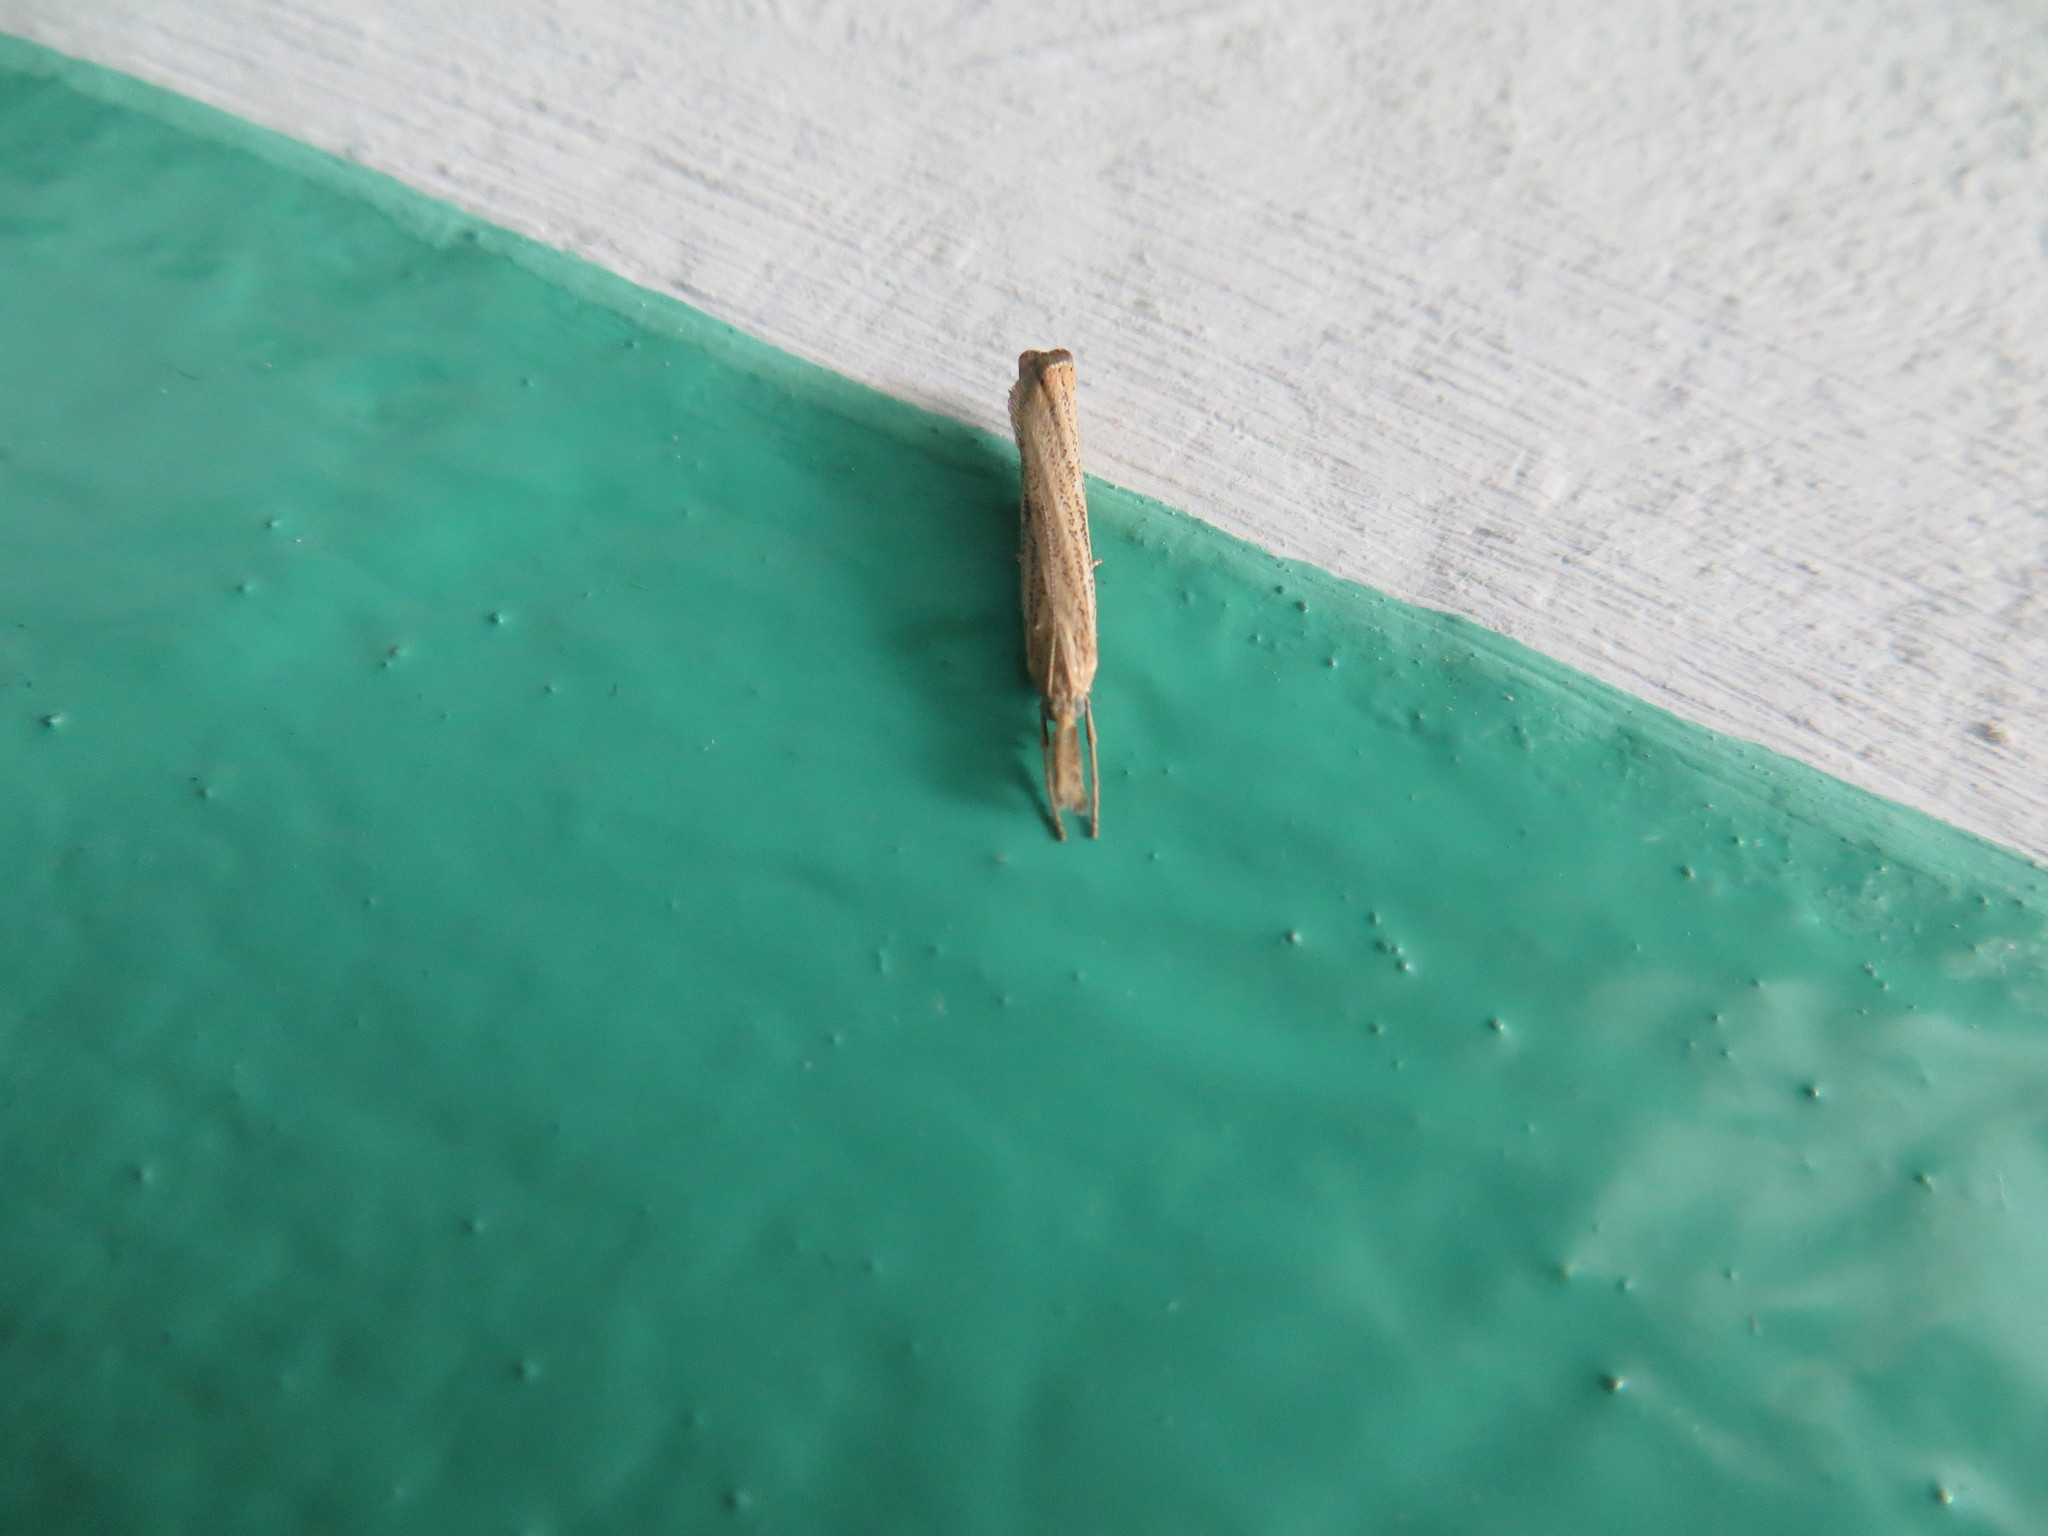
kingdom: Animalia
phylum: Arthropoda
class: Insecta
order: Lepidoptera
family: Crambidae
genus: Agriphila
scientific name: Agriphila straminella
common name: Straw grass-veneer
